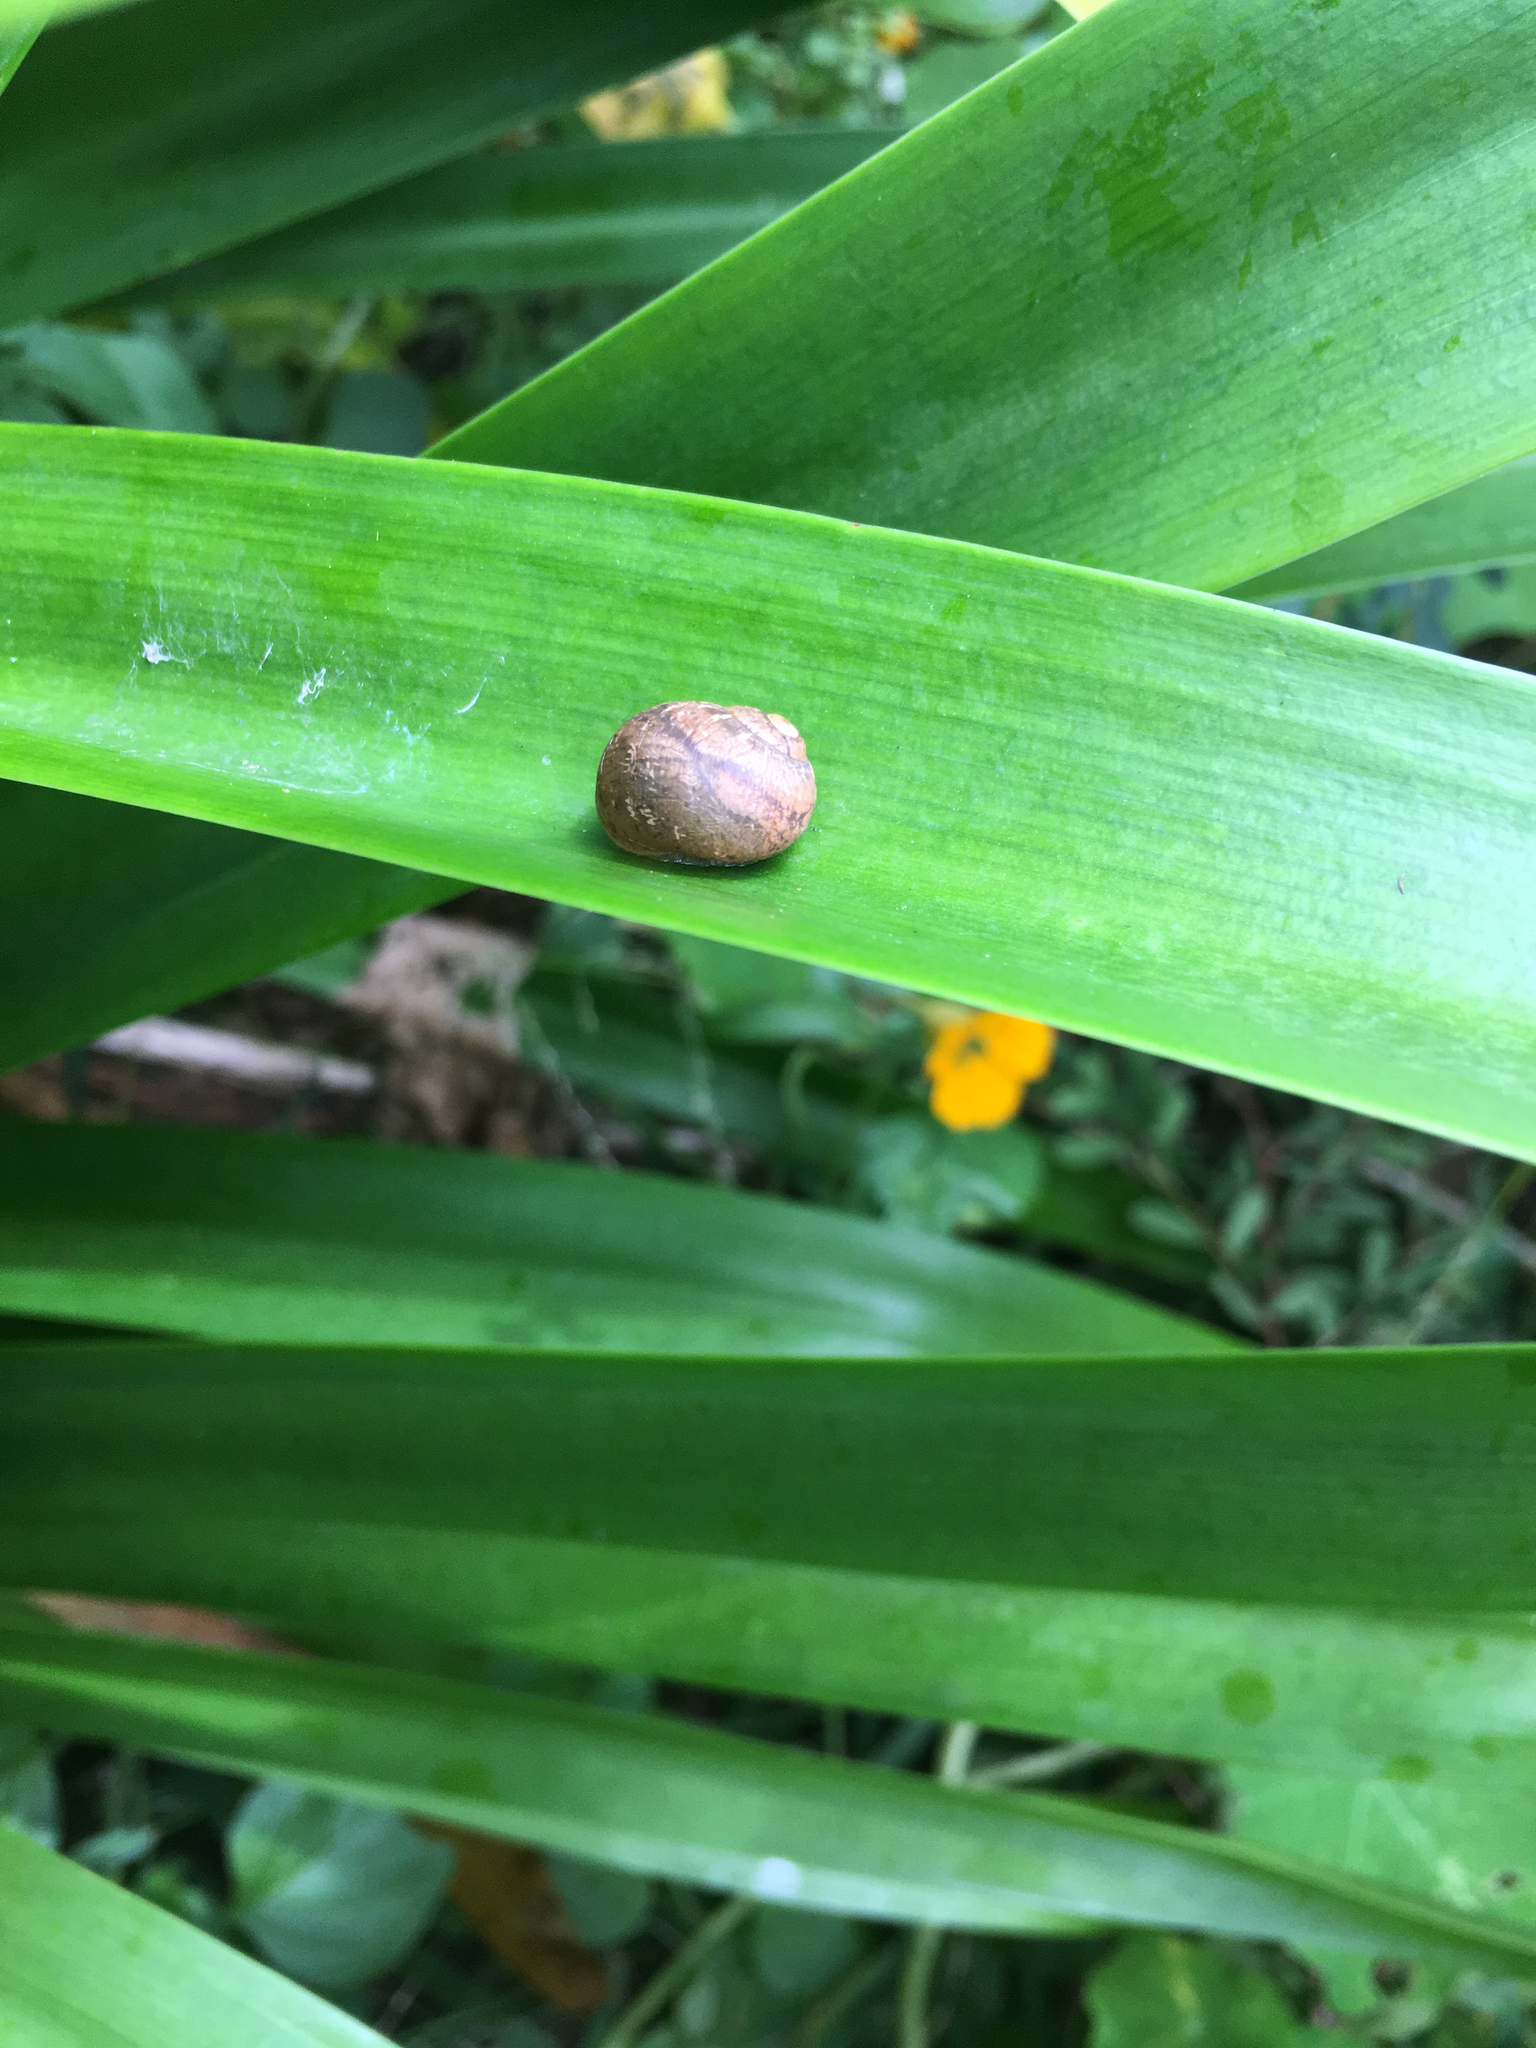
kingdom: Animalia
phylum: Mollusca
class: Gastropoda
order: Stylommatophora
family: Helicidae
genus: Cornu
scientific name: Cornu aspersum
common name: Brown garden snail
